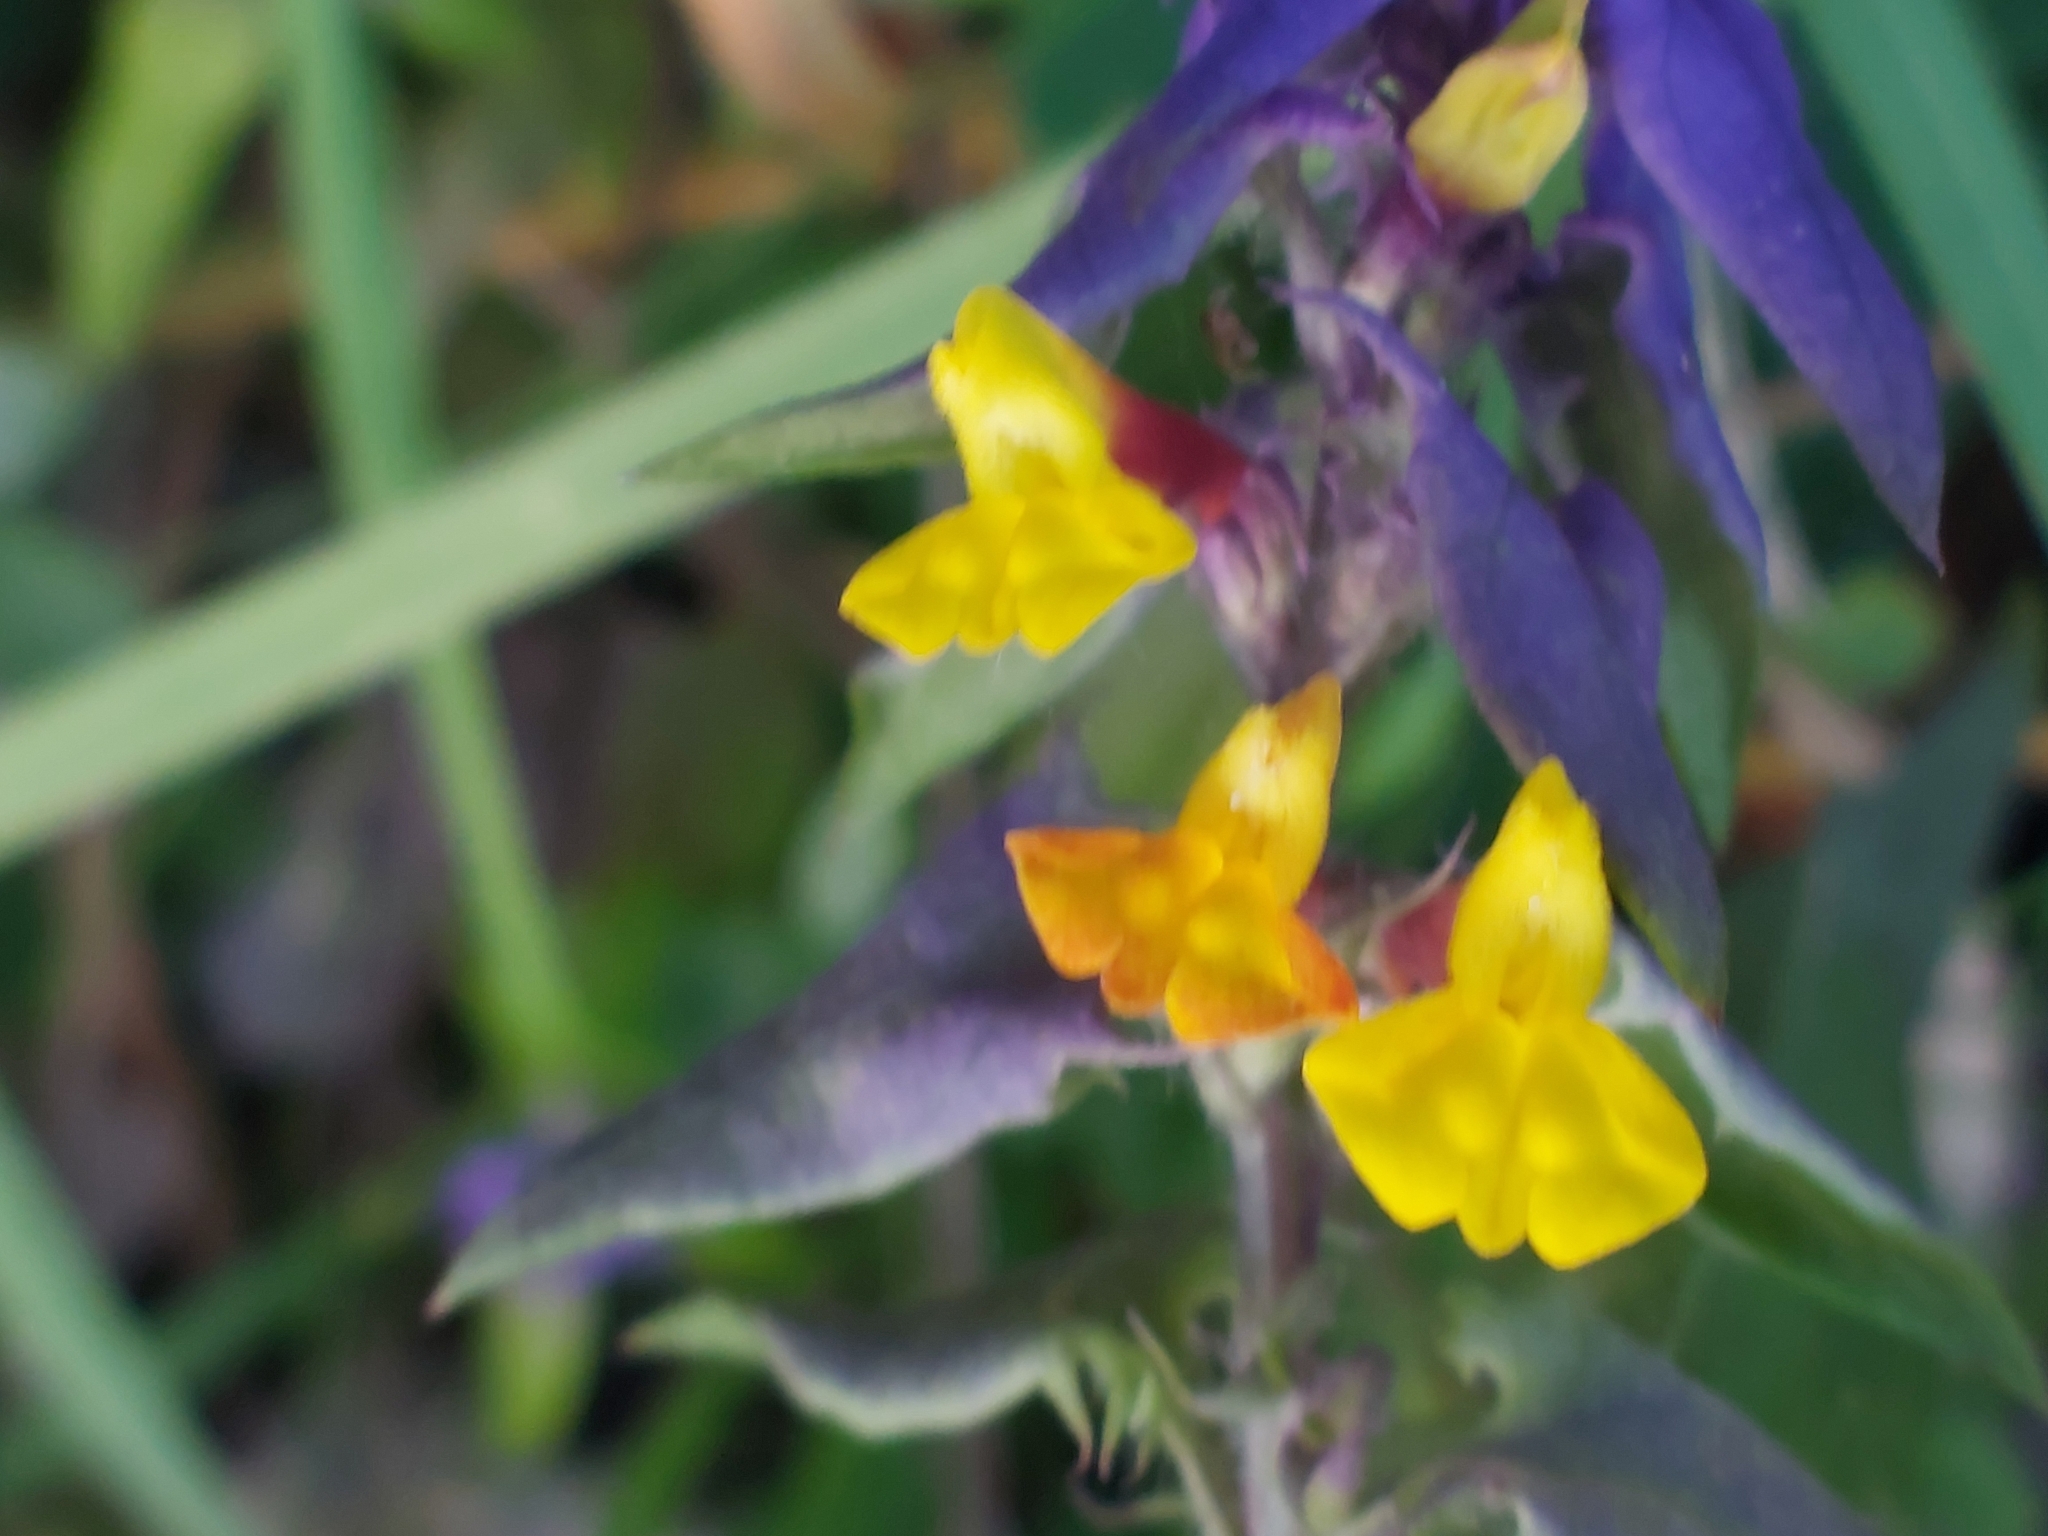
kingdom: Plantae
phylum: Tracheophyta
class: Magnoliopsida
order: Lamiales
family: Orobanchaceae
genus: Melampyrum
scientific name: Melampyrum nemorosum
